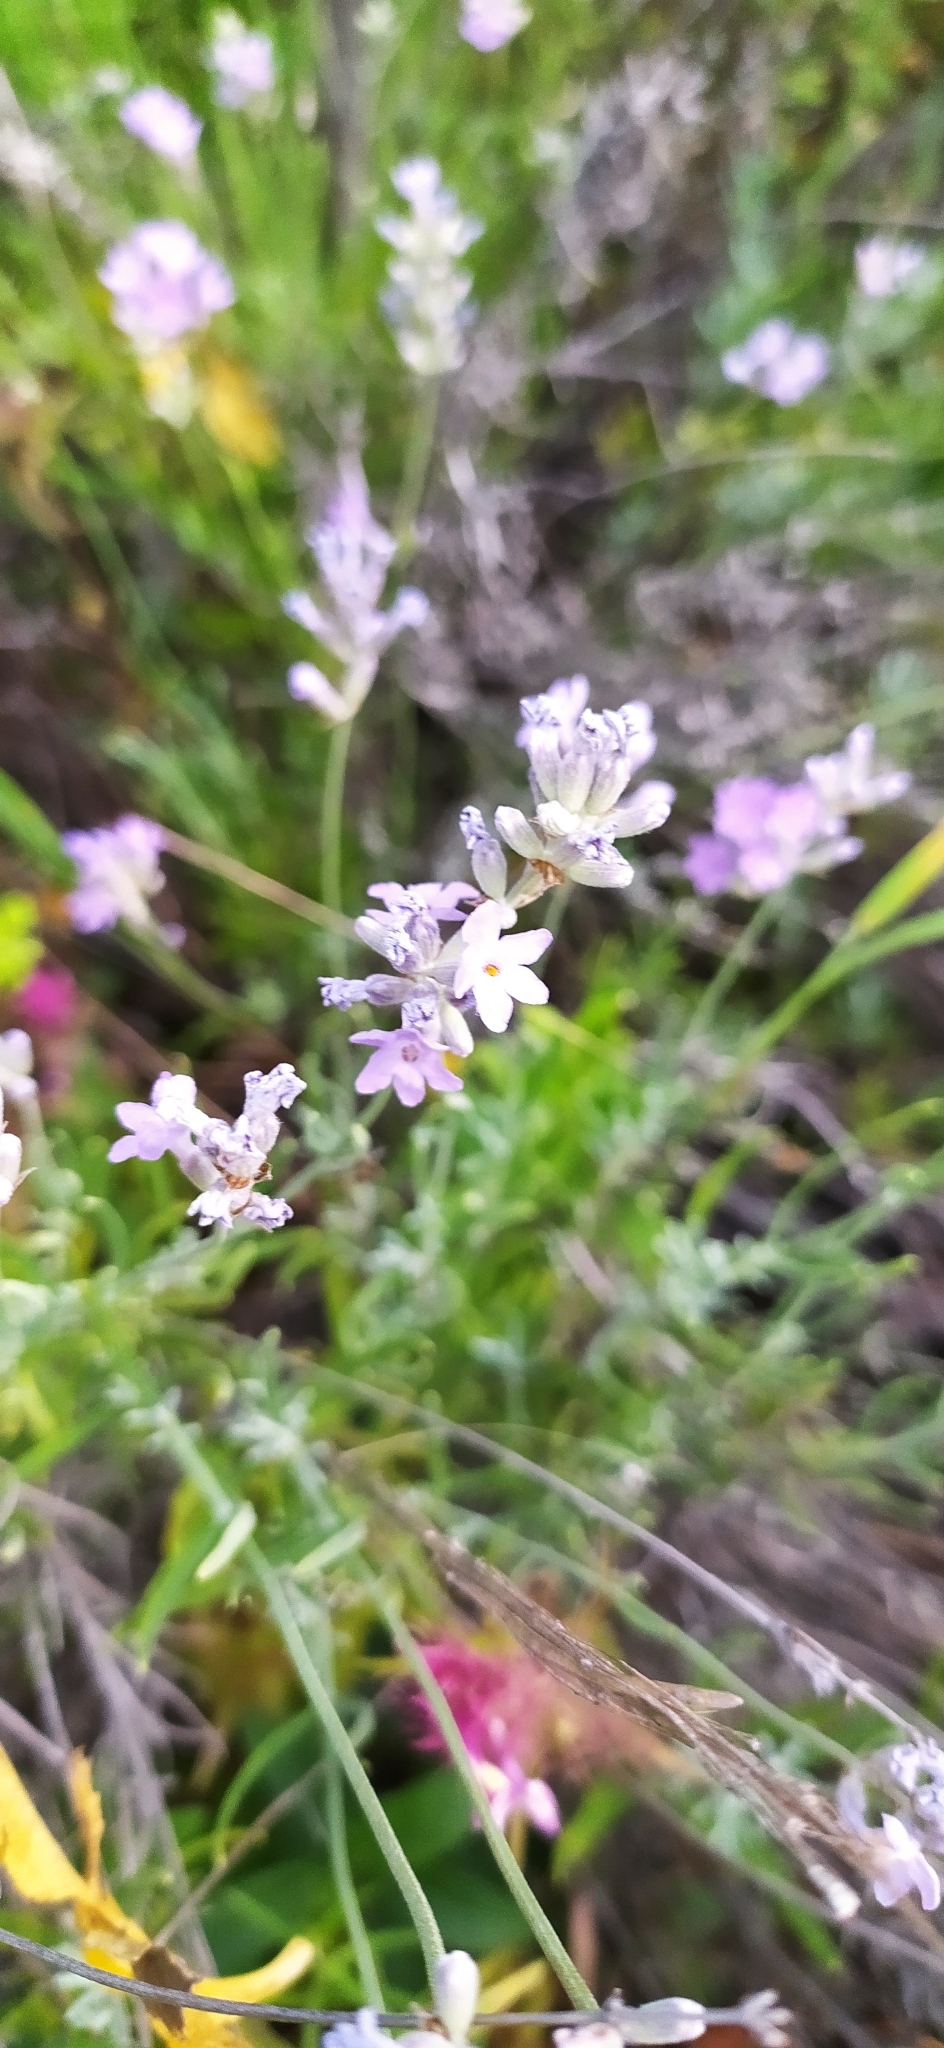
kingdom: Plantae
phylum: Tracheophyta
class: Magnoliopsida
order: Lamiales
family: Lamiaceae
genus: Lavandula
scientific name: Lavandula angustifolia
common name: Garden lavender
